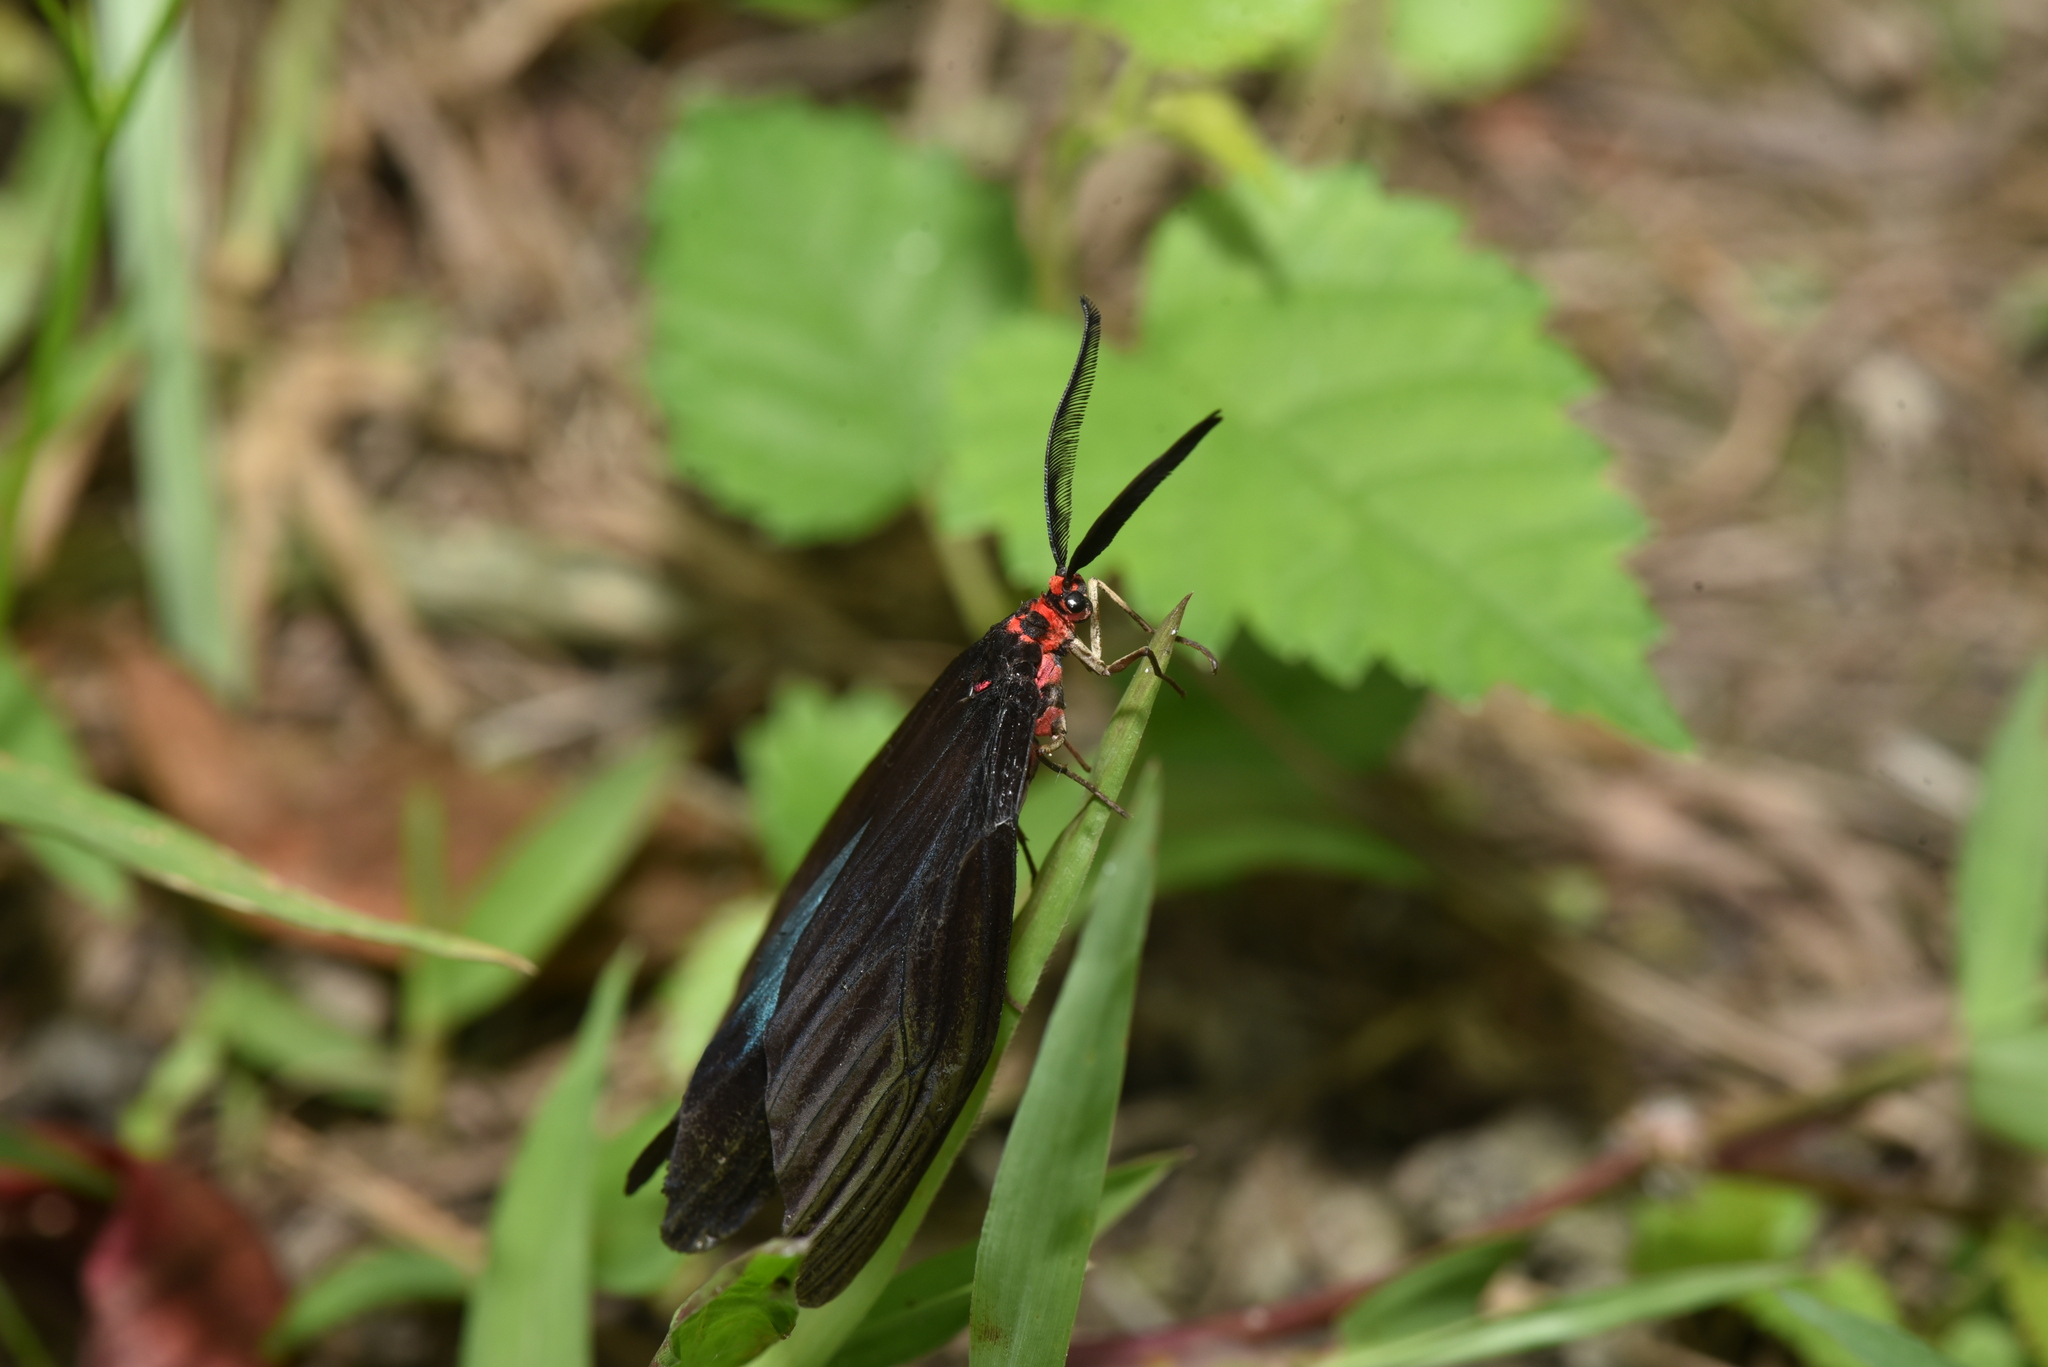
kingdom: Animalia
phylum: Arthropoda
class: Insecta
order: Lepidoptera
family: Zygaenidae
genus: Histia
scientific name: Histia flabellicornis
